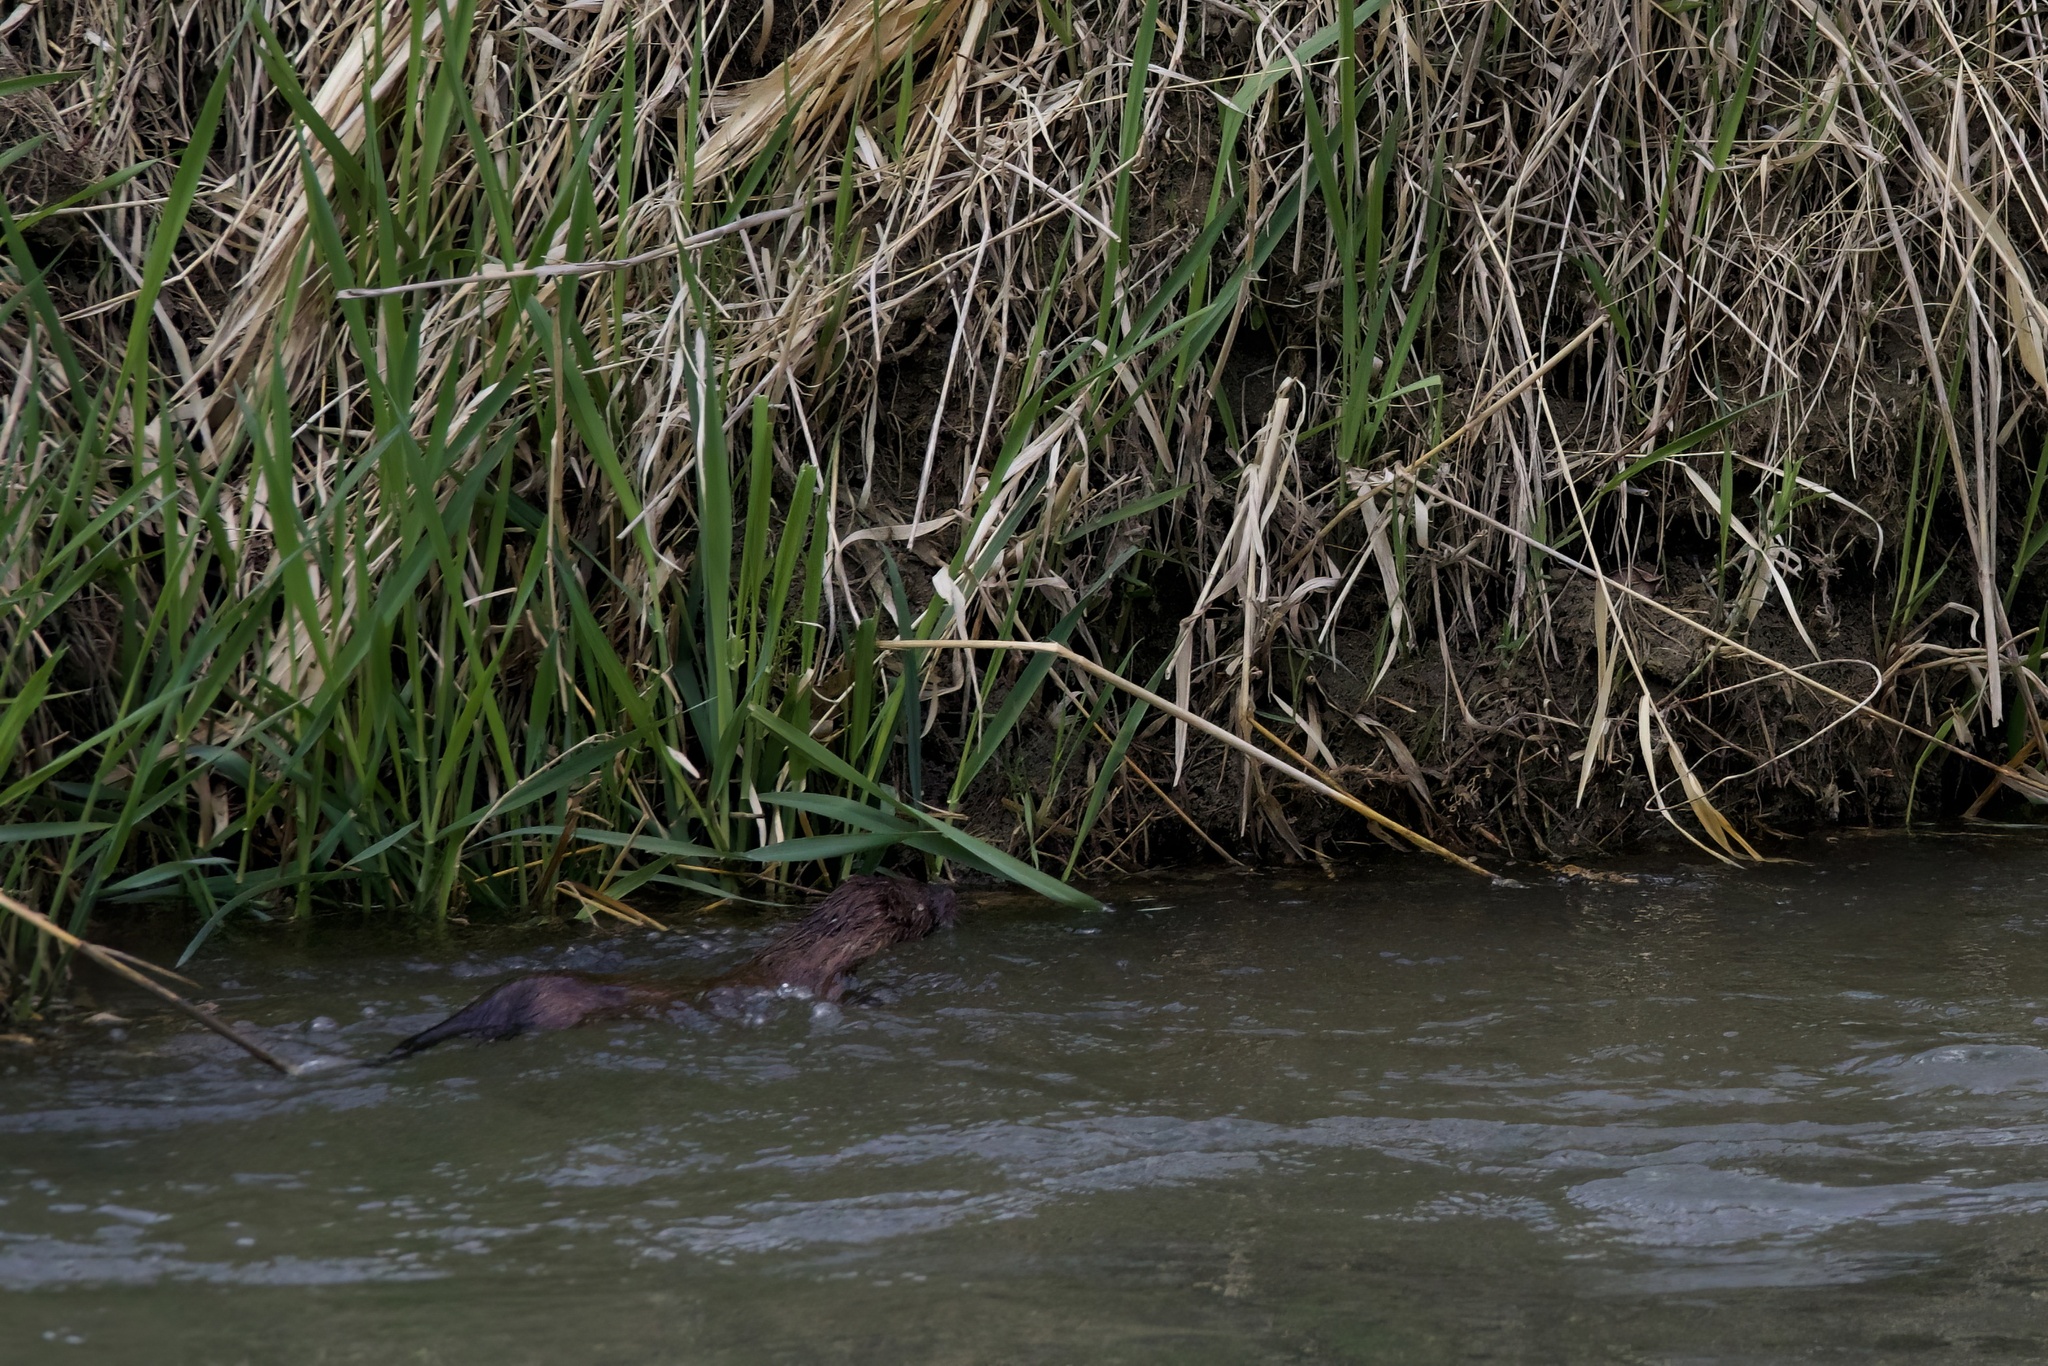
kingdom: Animalia
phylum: Chordata
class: Mammalia
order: Carnivora
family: Mustelidae
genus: Mustela
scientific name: Mustela
